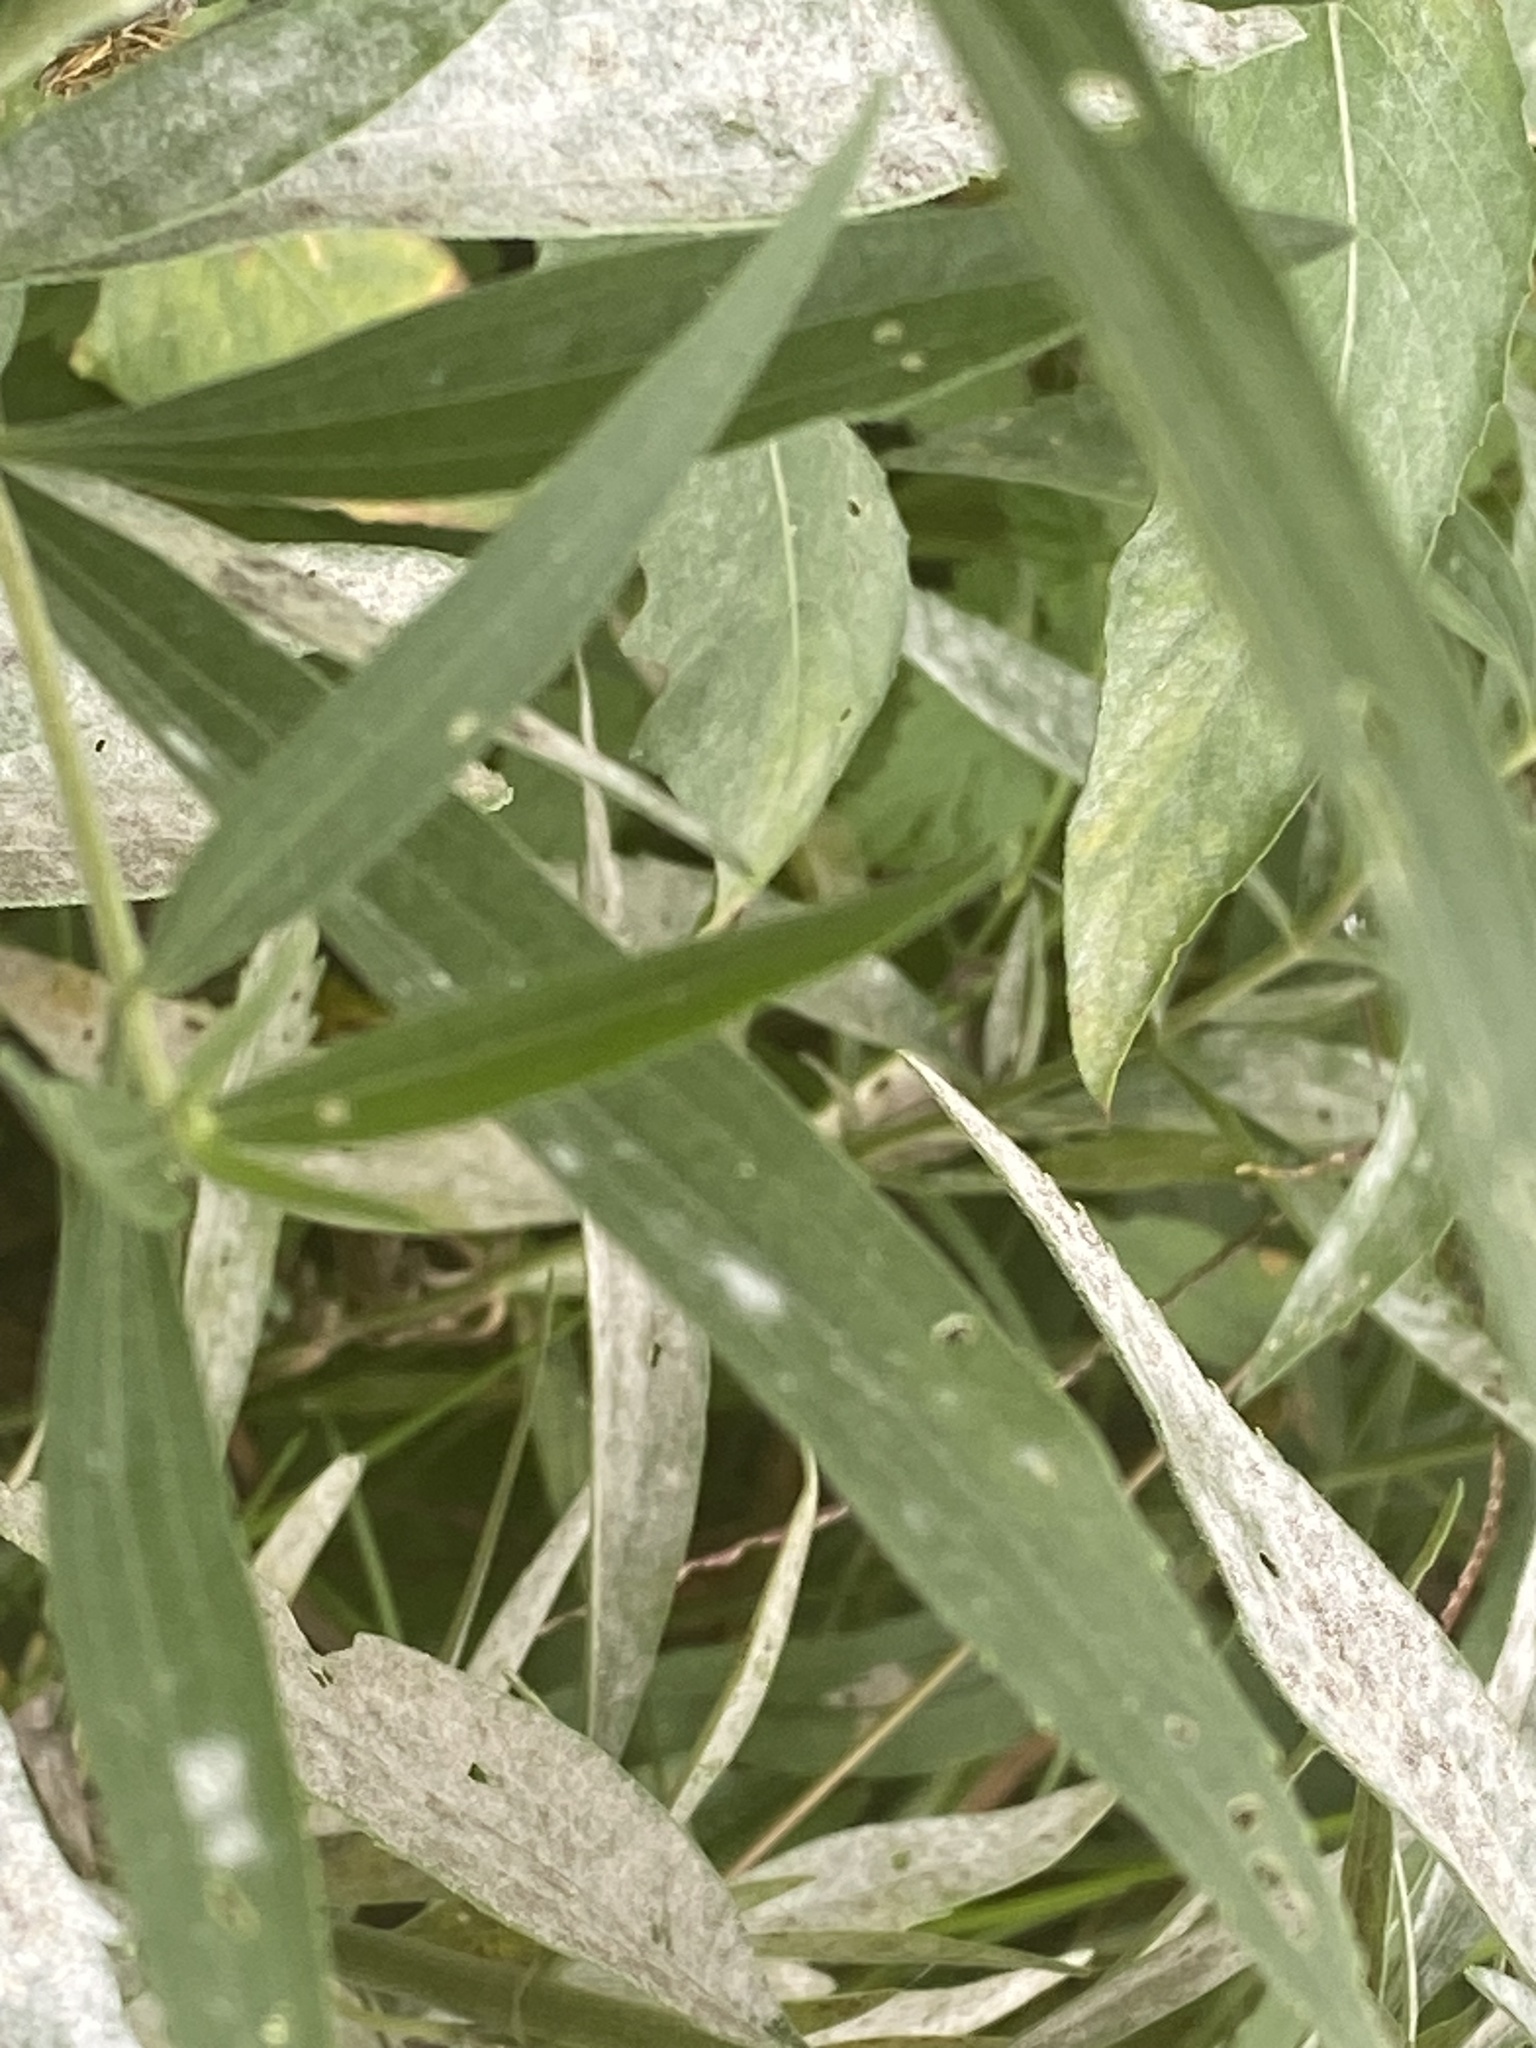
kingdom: Plantae
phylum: Tracheophyta
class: Magnoliopsida
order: Asterales
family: Asteraceae
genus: Eupatorium
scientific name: Eupatorium altissimum
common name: Tall thoroughwort
